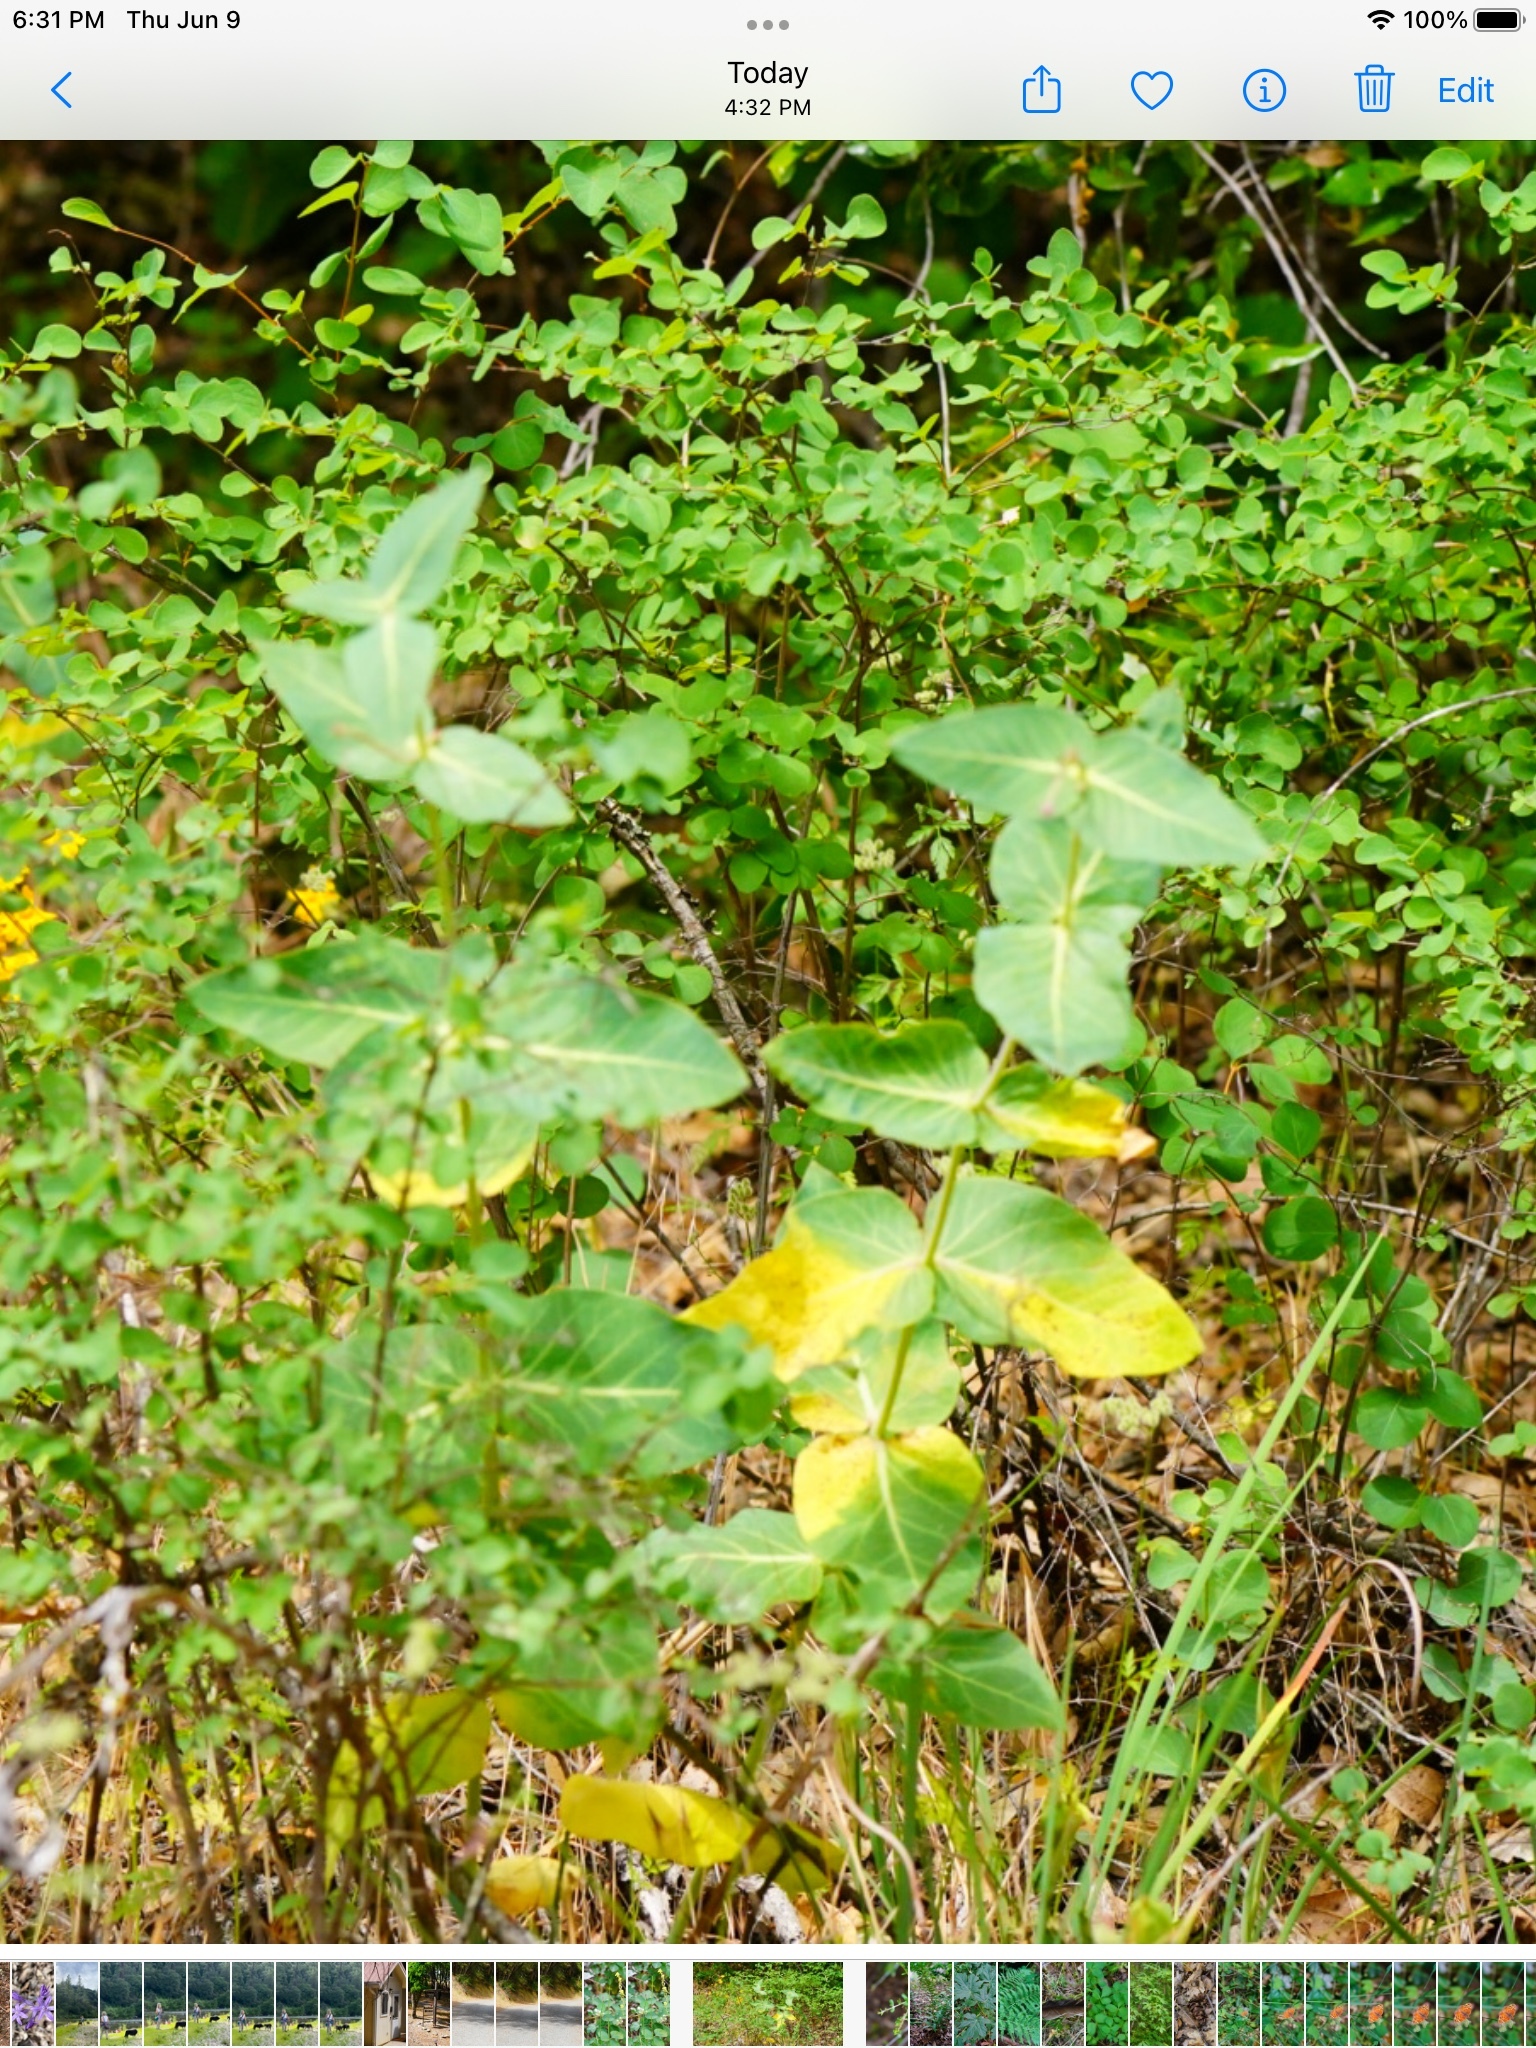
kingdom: Plantae
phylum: Tracheophyta
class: Magnoliopsida
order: Gentianales
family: Apocynaceae
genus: Asclepias
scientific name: Asclepias cordifolia
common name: Purple milkweed
